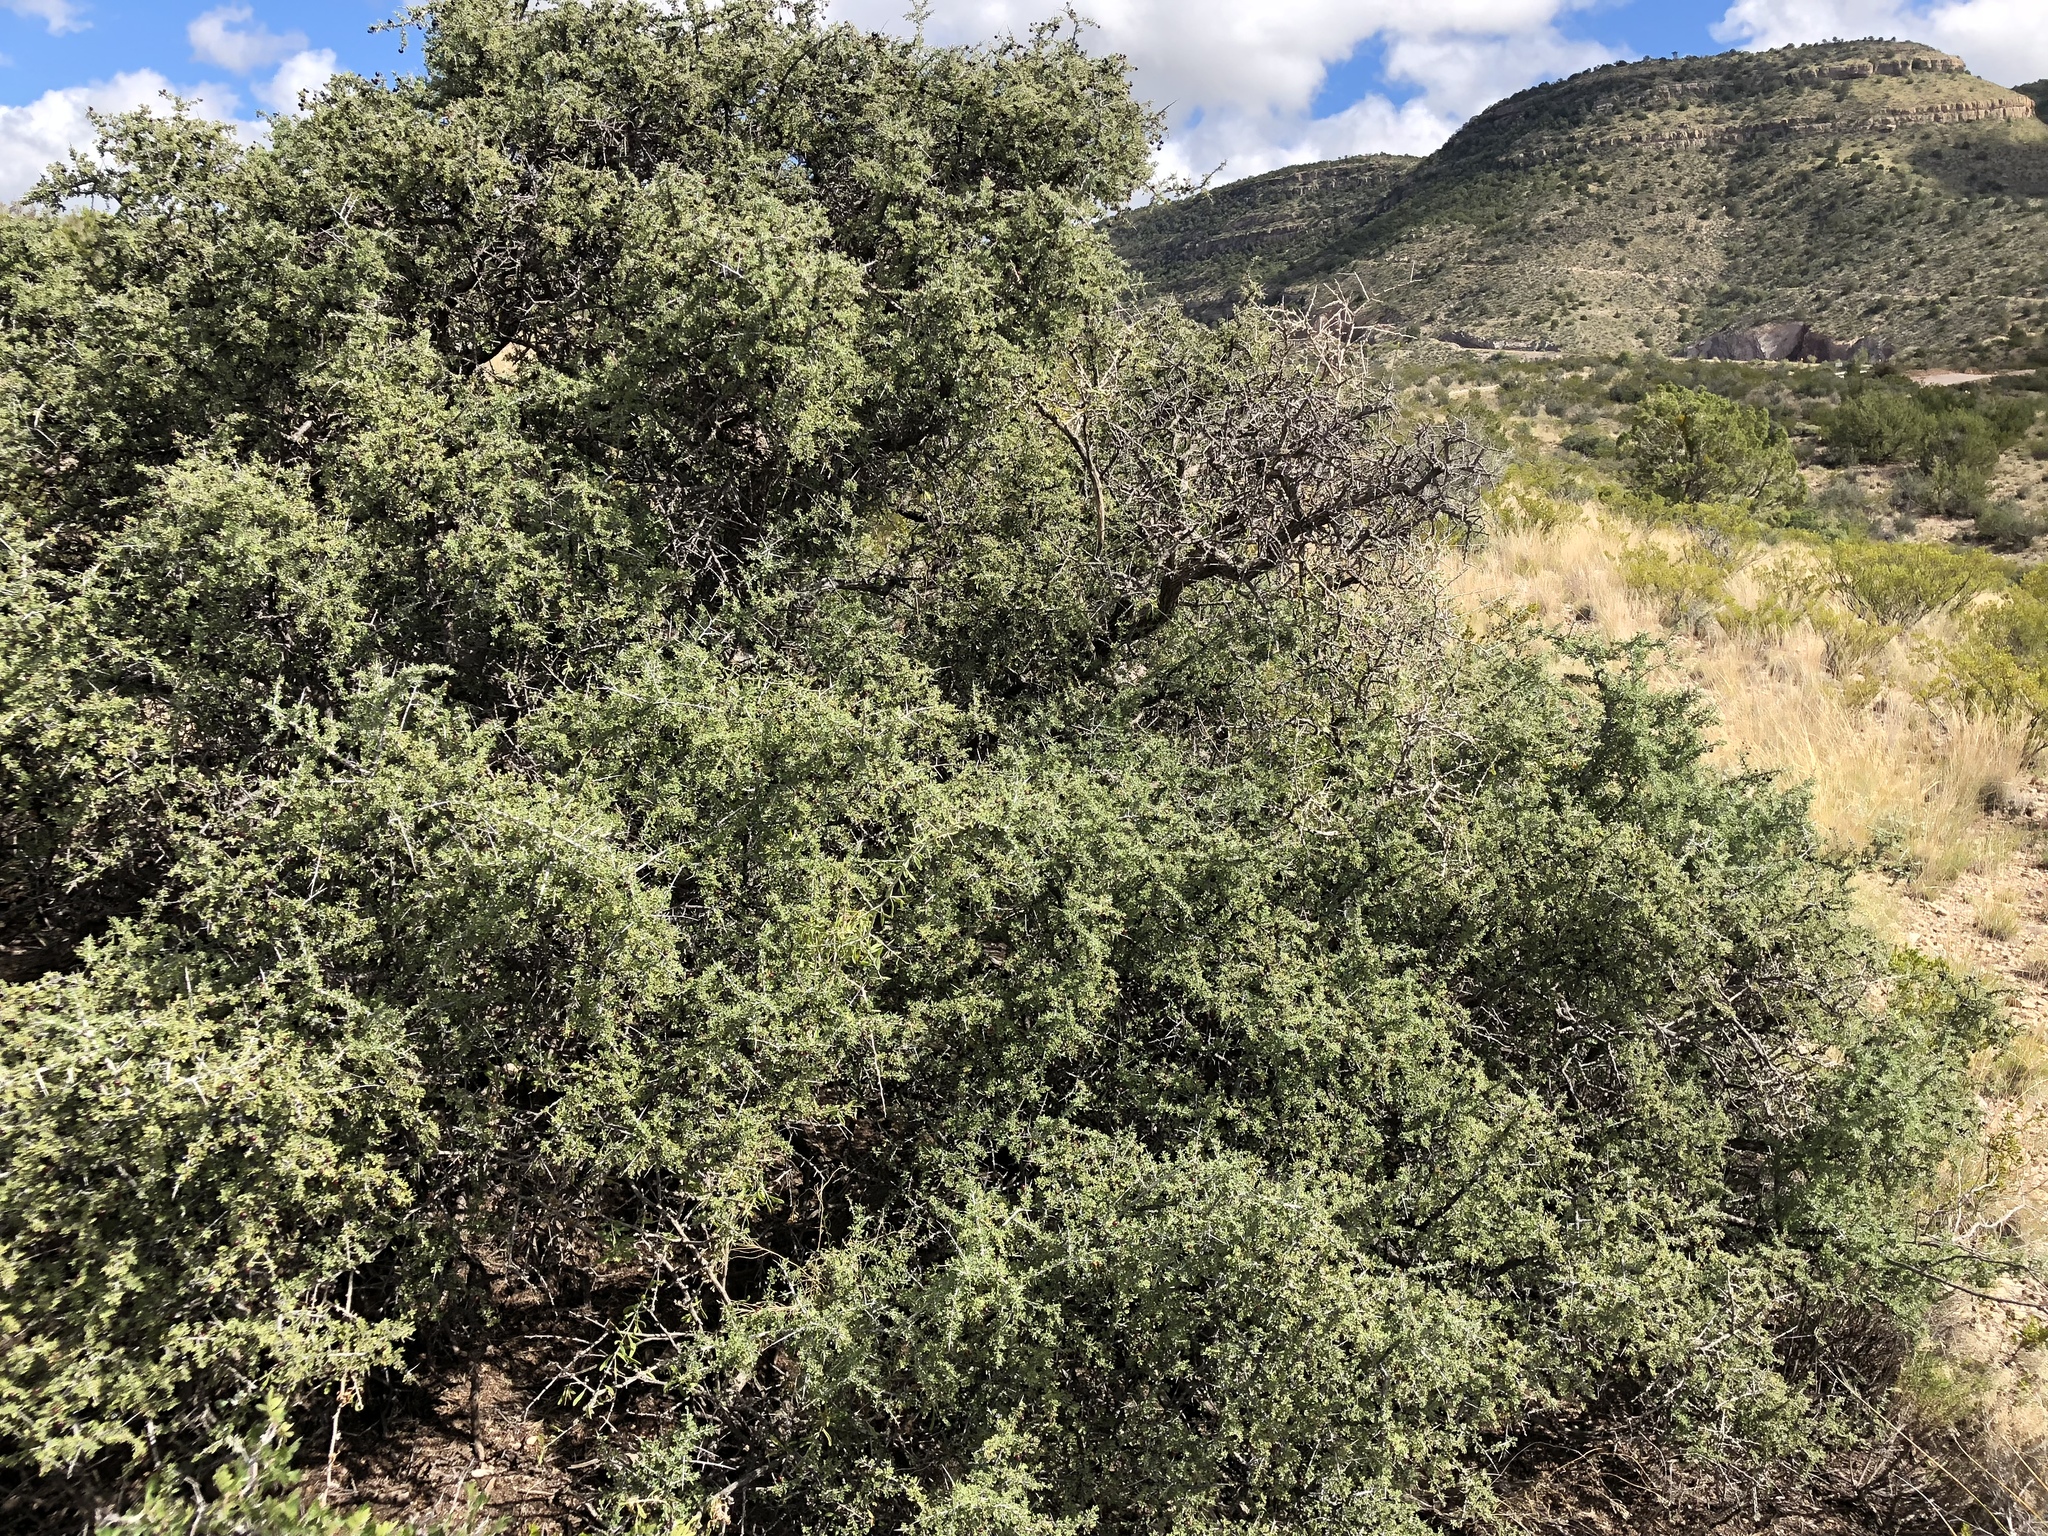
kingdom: Plantae
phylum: Tracheophyta
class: Magnoliopsida
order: Rosales
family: Rhamnaceae
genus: Condalia
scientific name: Condalia warnockii
